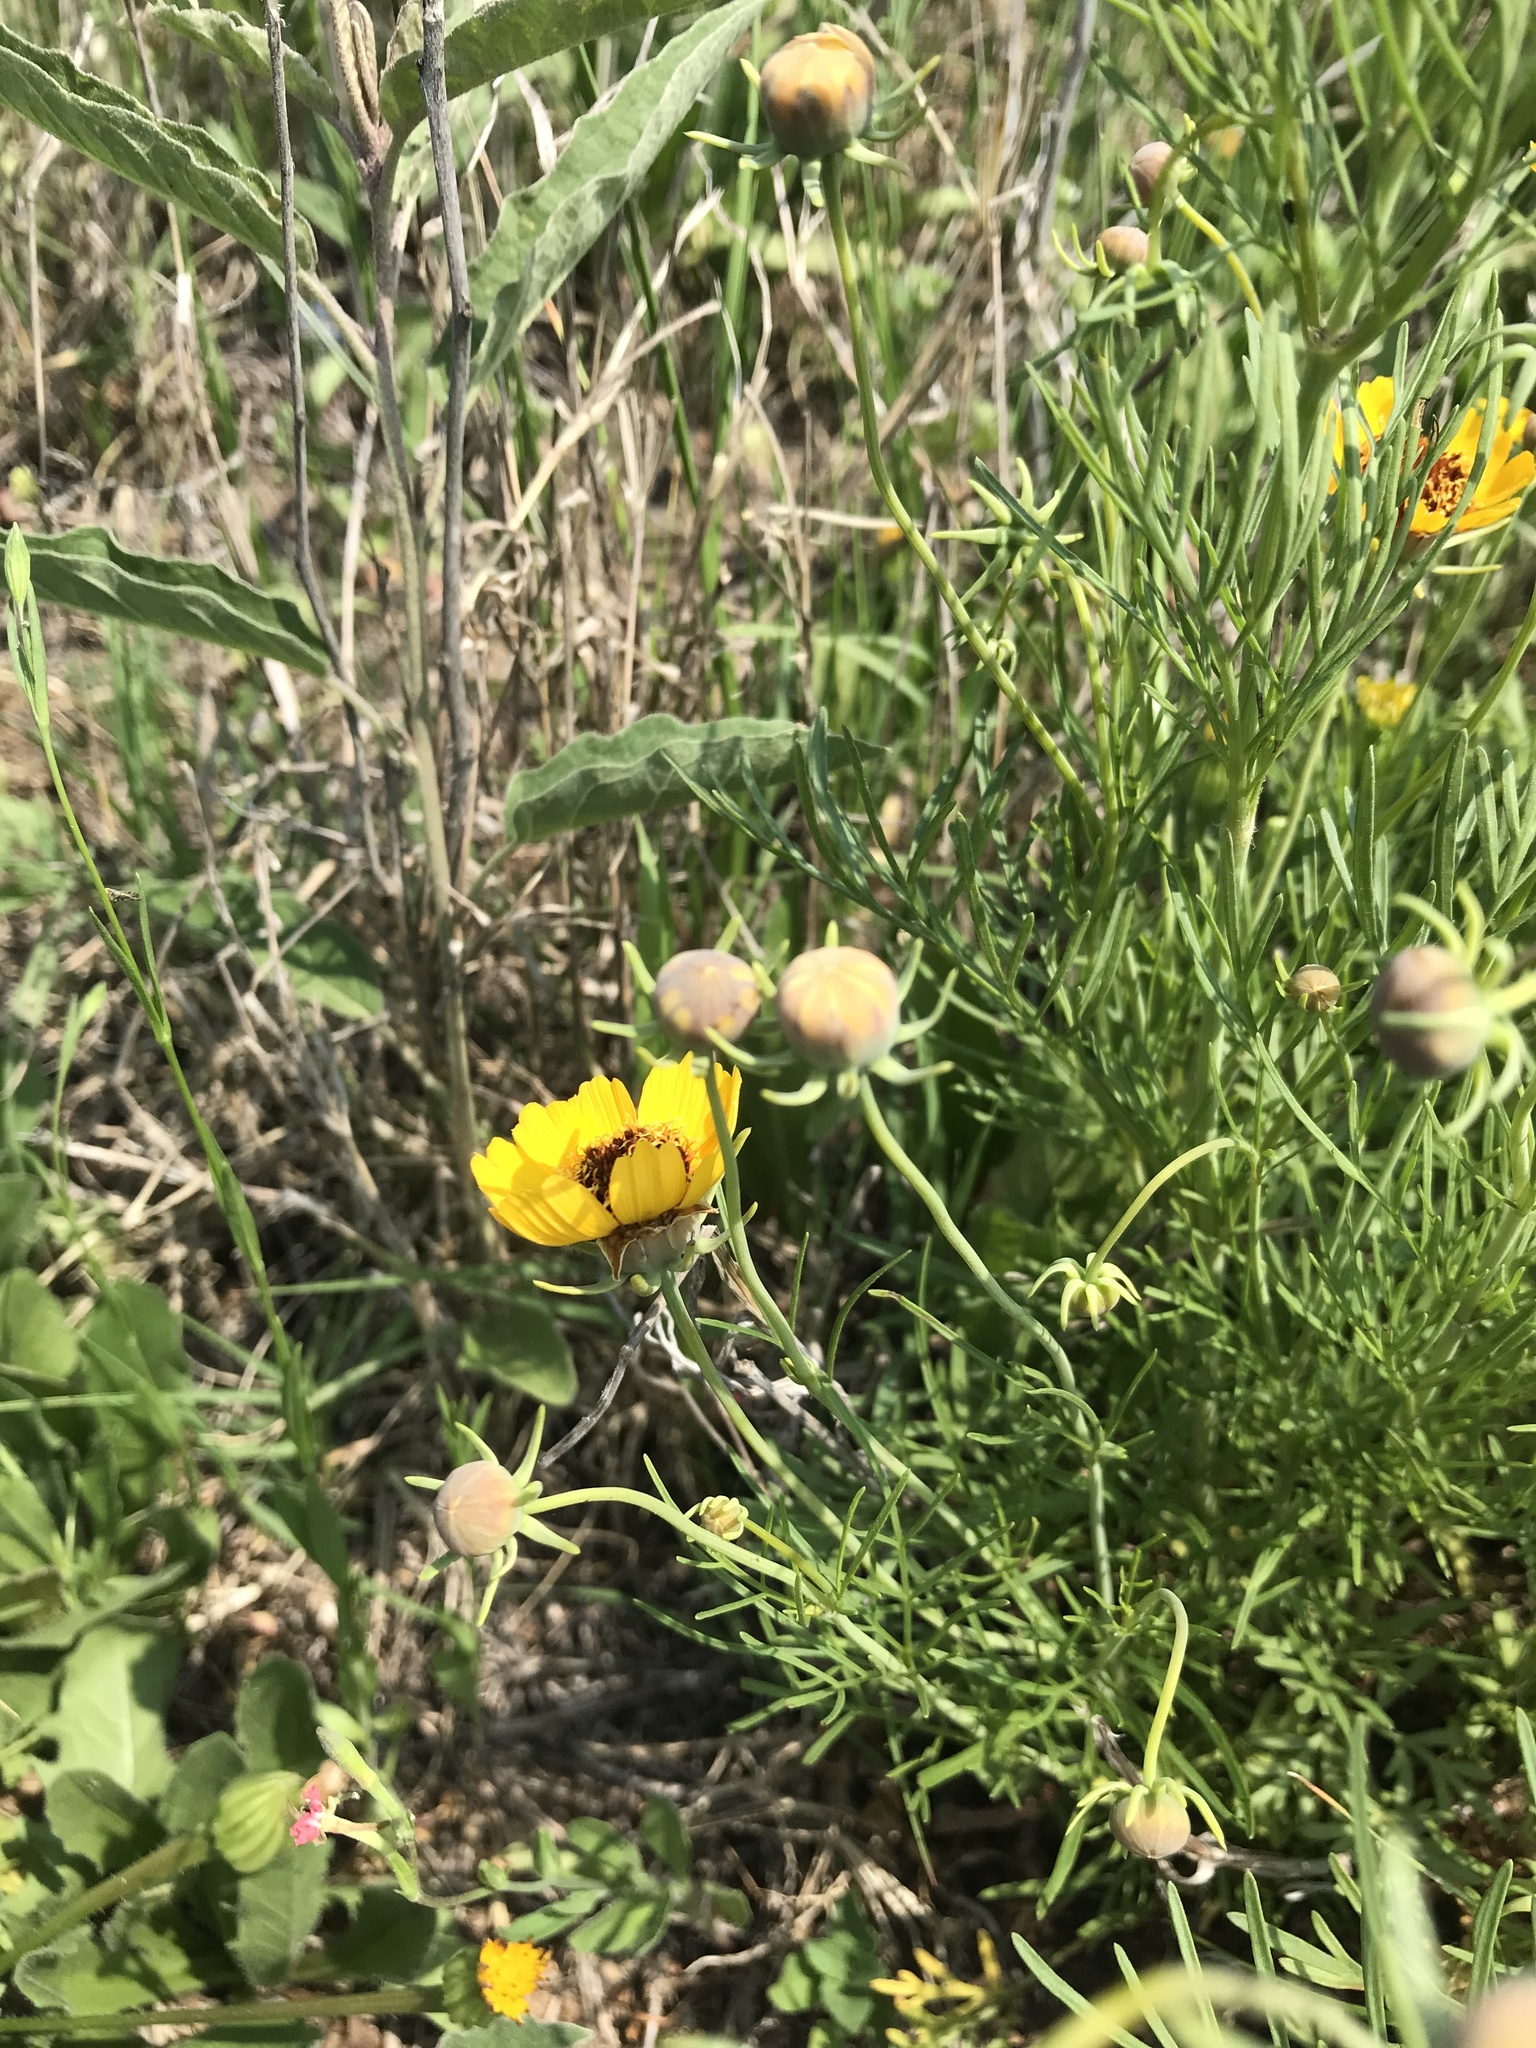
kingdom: Plantae
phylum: Tracheophyta
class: Magnoliopsida
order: Asterales
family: Asteraceae
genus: Thelesperma
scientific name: Thelesperma filifolium
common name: Stiff greenthread
